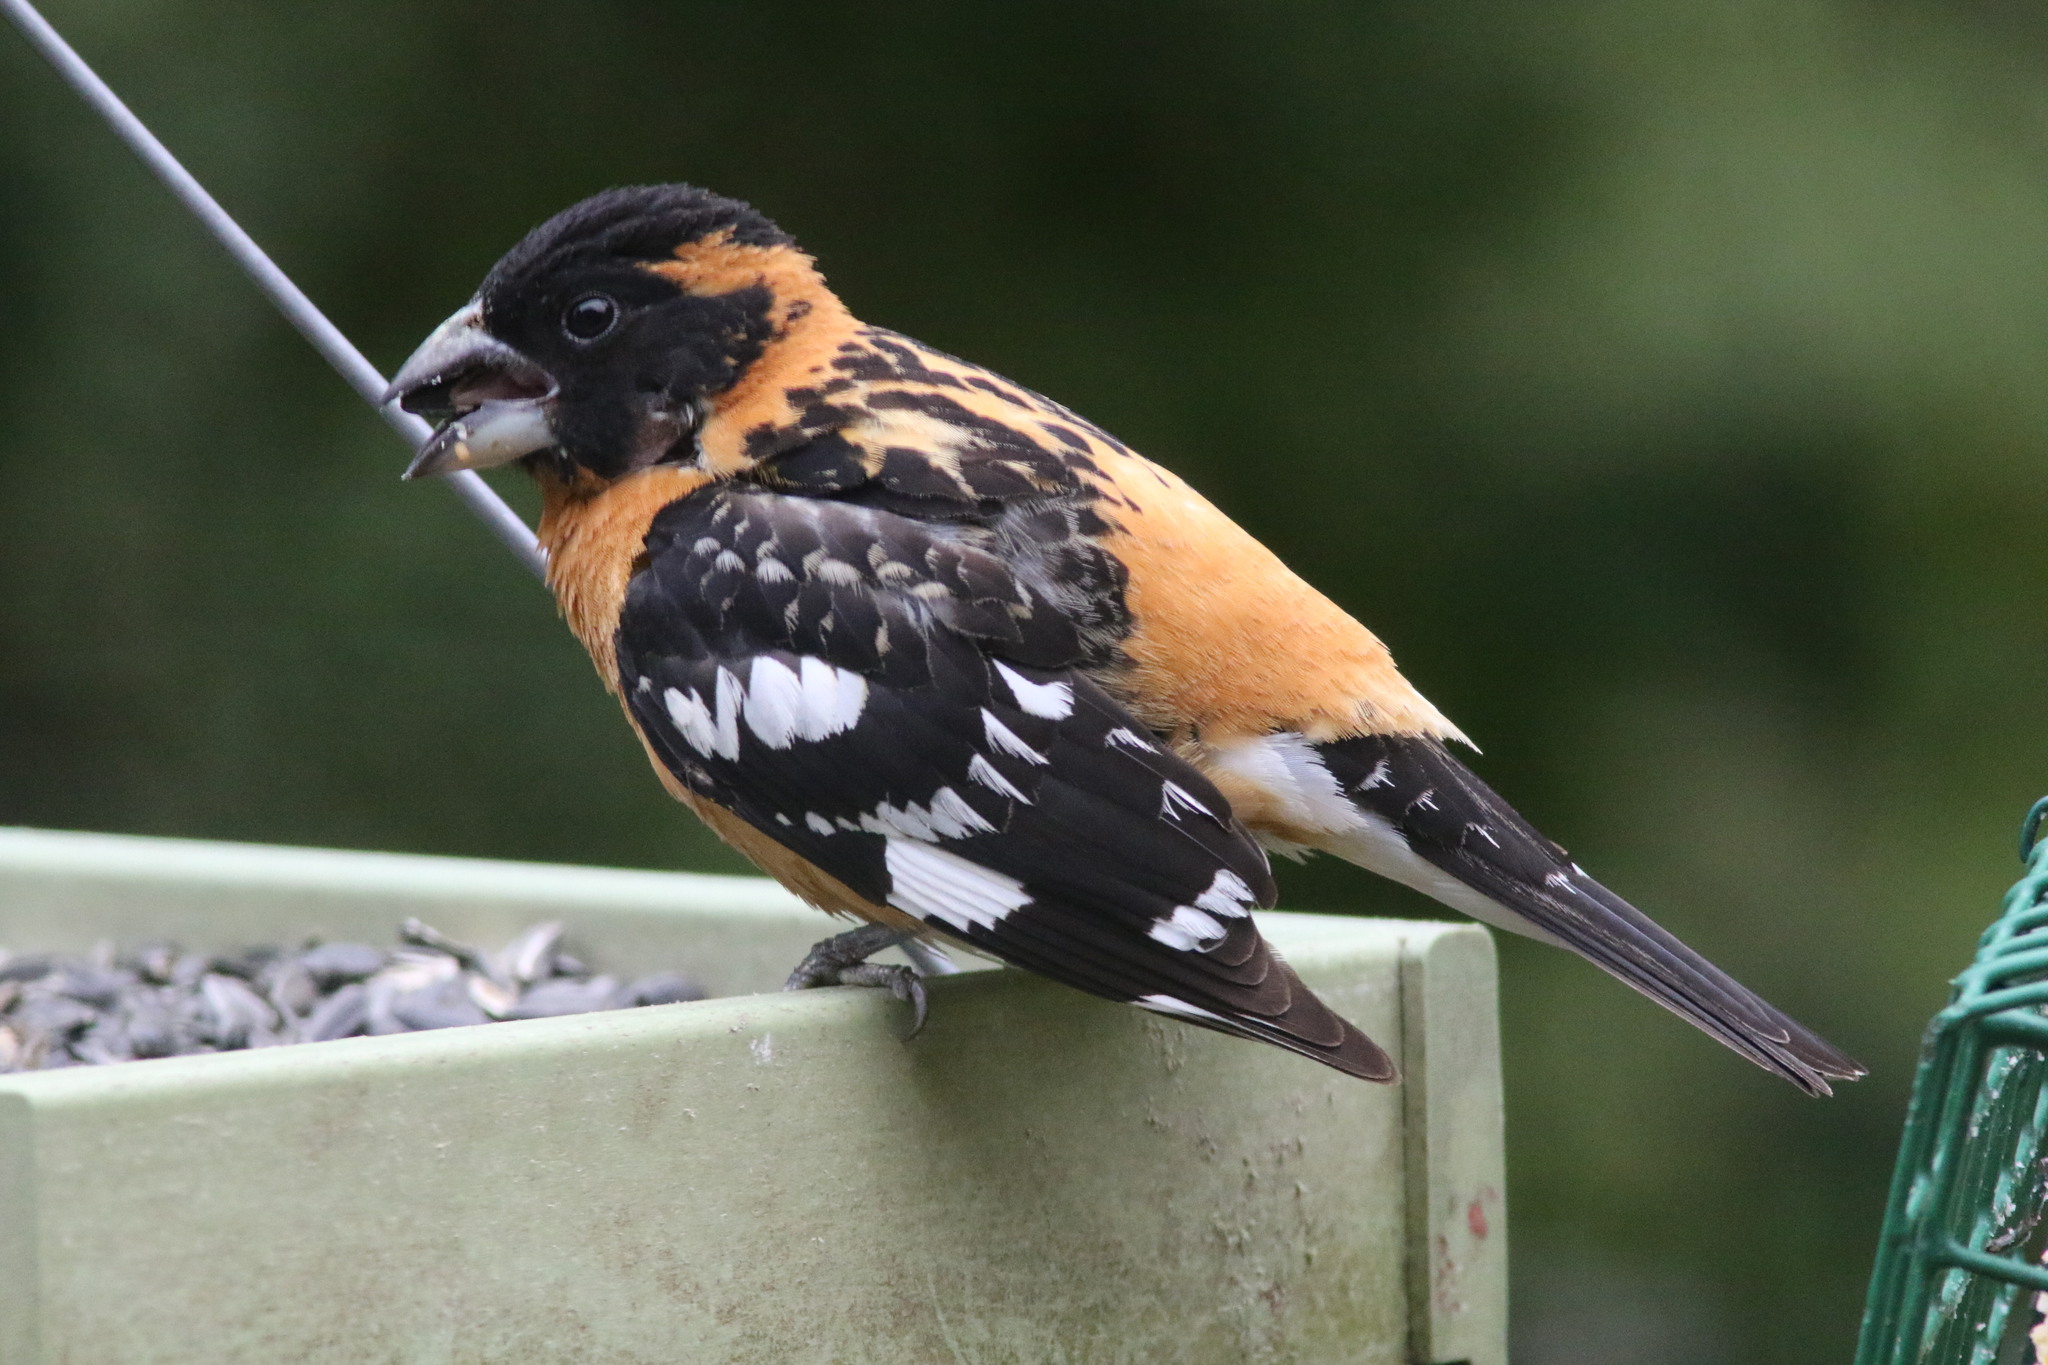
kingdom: Animalia
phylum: Chordata
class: Aves
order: Passeriformes
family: Cardinalidae
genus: Pheucticus
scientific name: Pheucticus melanocephalus
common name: Black-headed grosbeak
